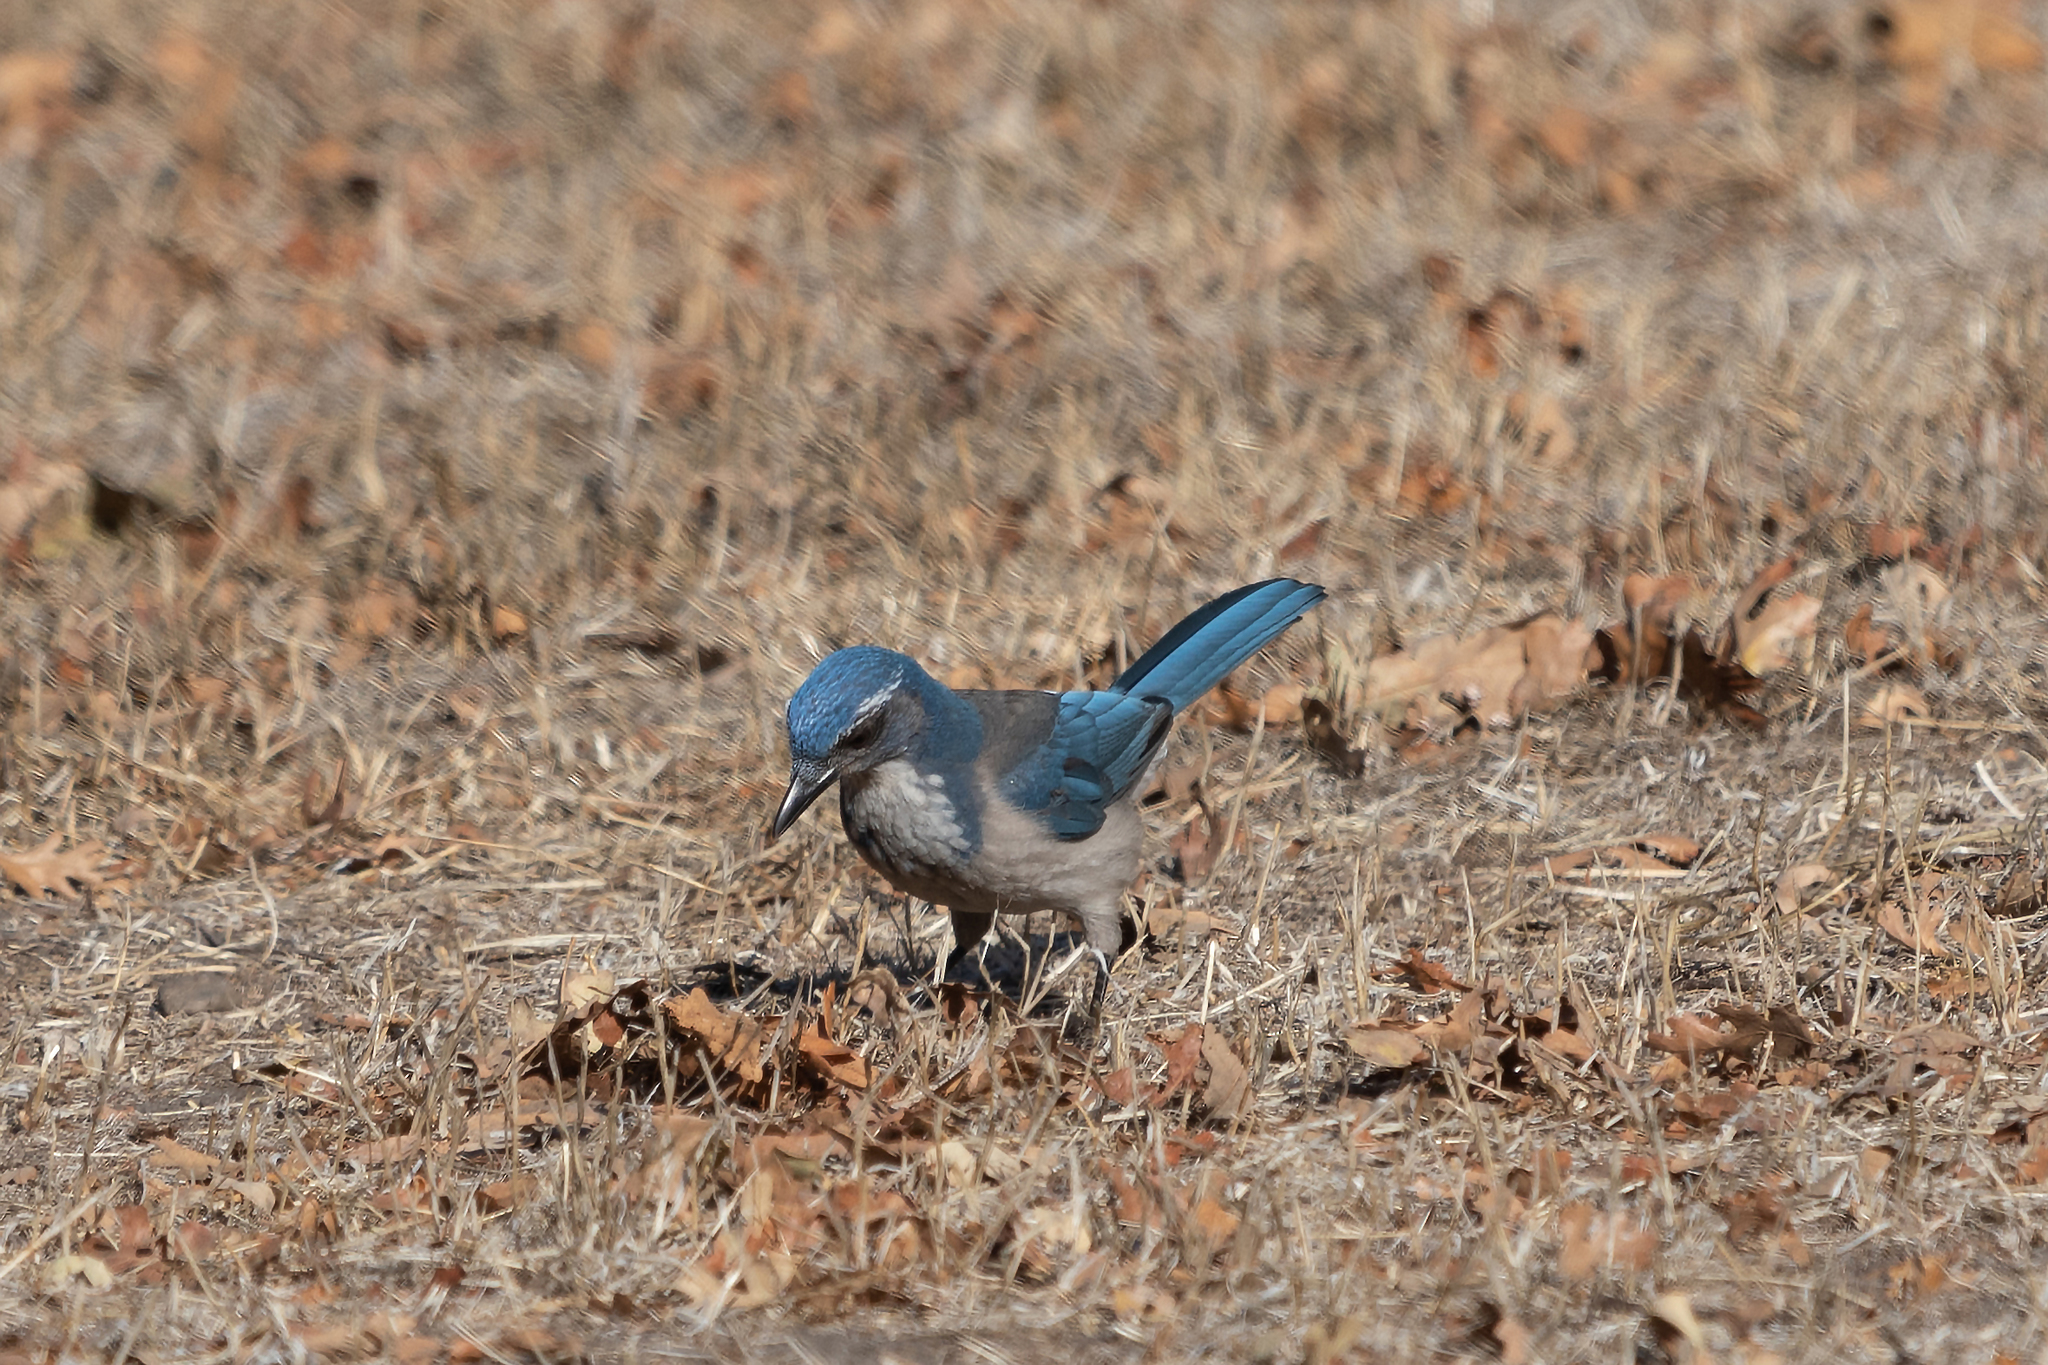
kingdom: Animalia
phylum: Chordata
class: Aves
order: Passeriformes
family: Corvidae
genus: Aphelocoma
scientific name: Aphelocoma californica
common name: California scrub-jay
